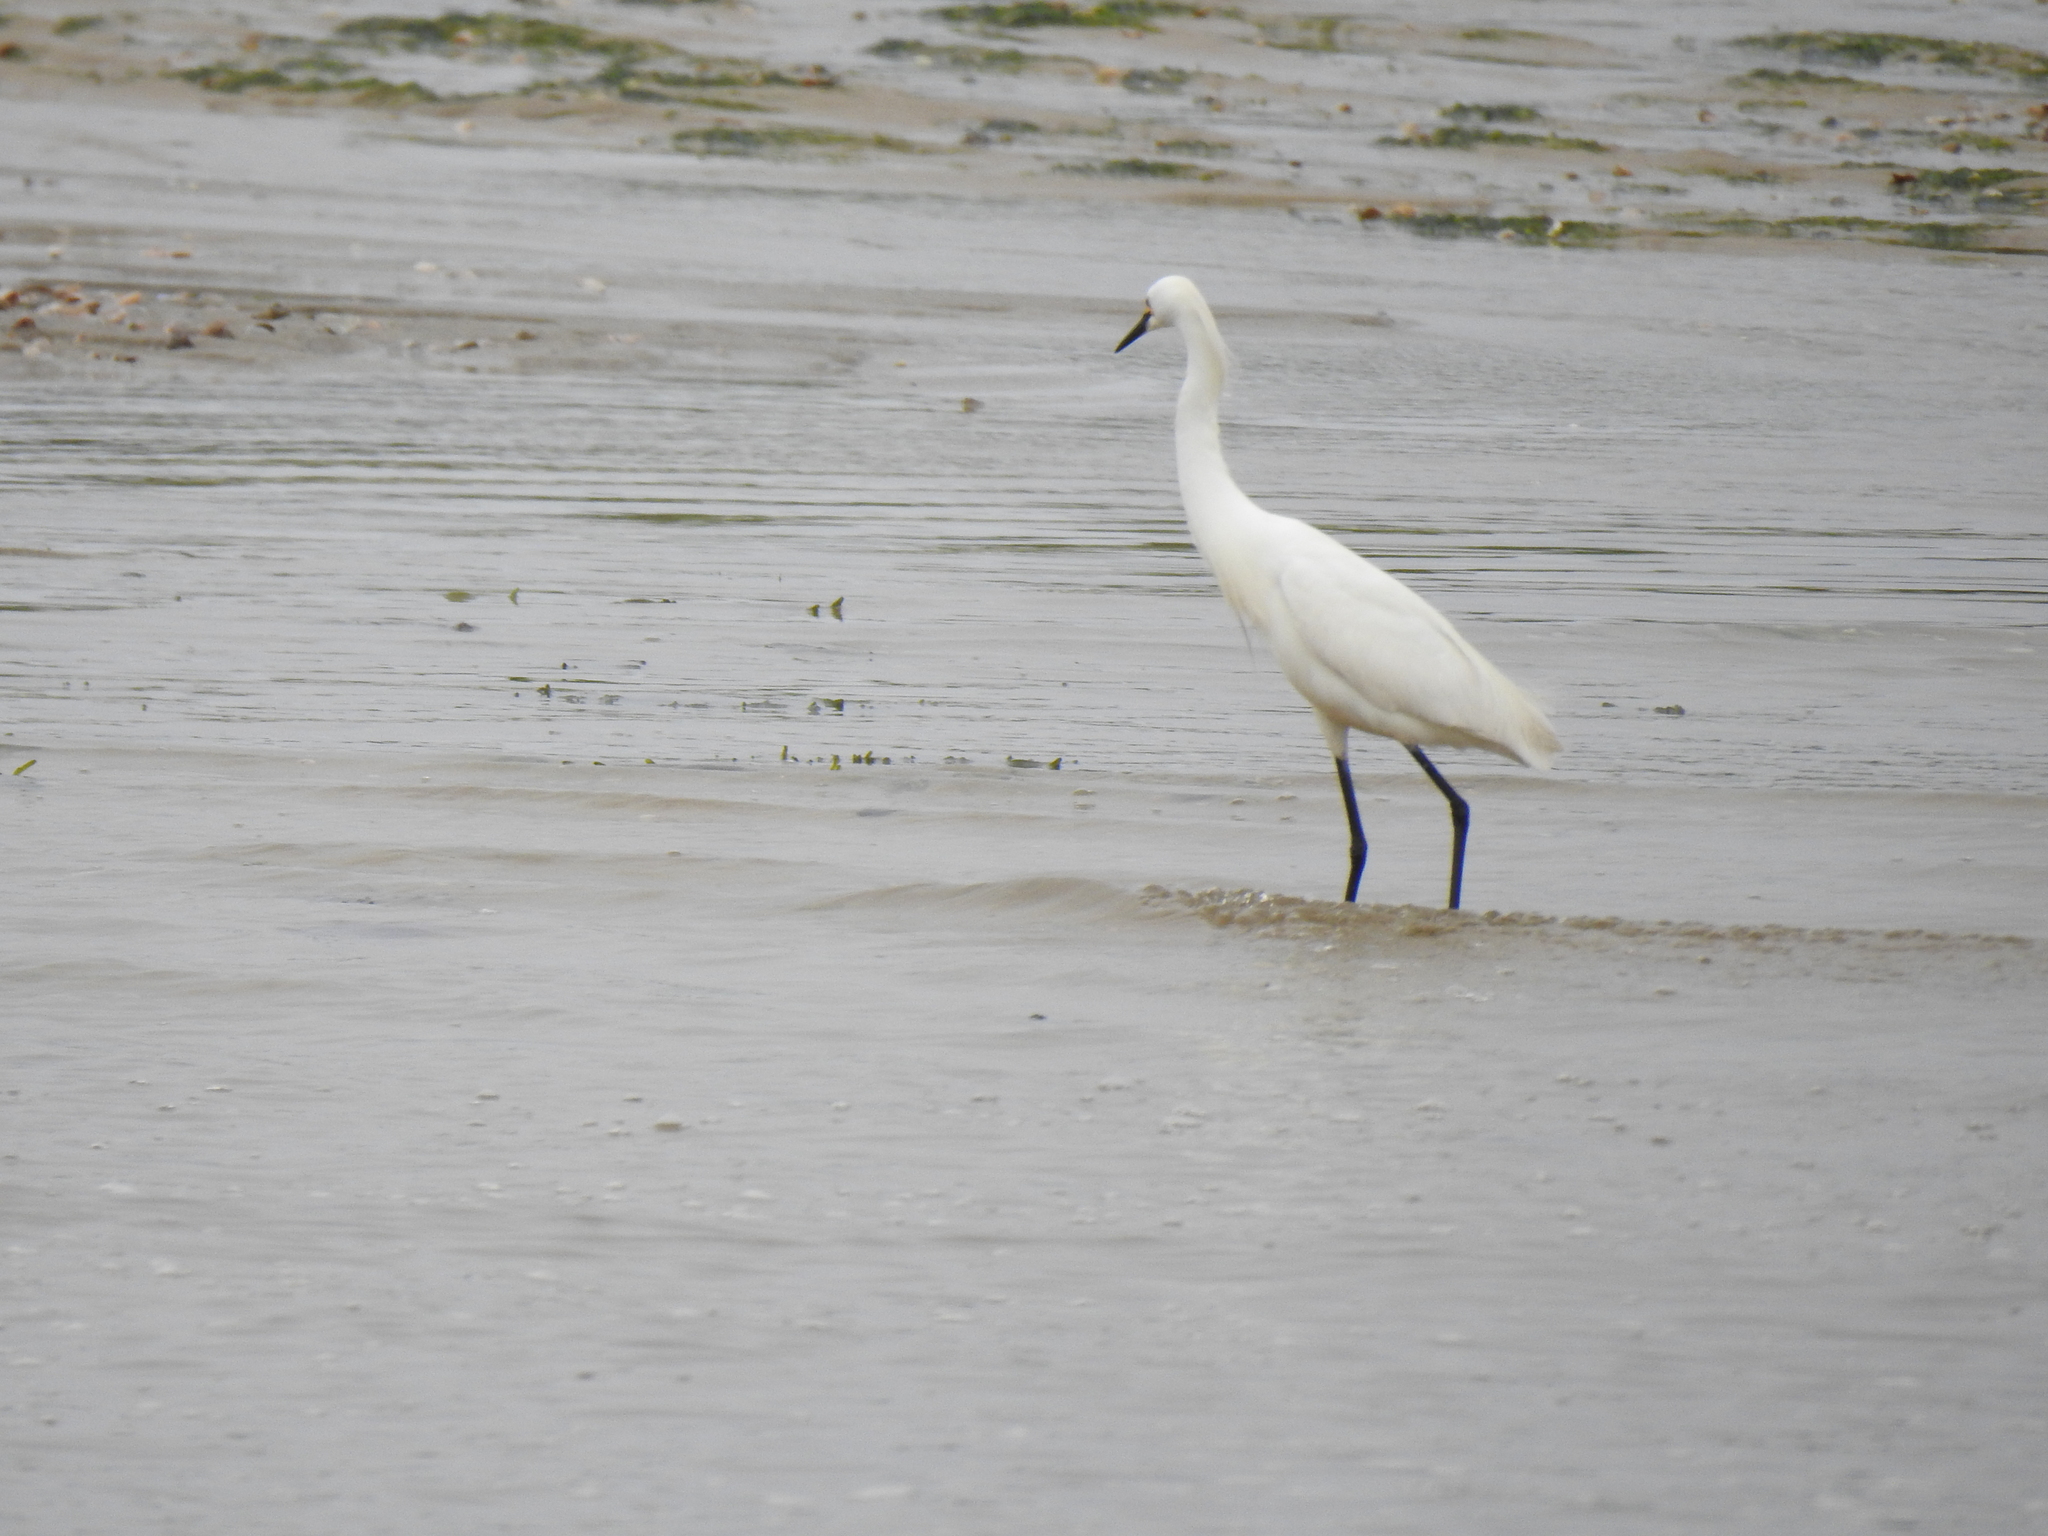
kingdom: Animalia
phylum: Chordata
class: Aves
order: Pelecaniformes
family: Ardeidae
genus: Egretta
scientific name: Egretta thula
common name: Snowy egret
